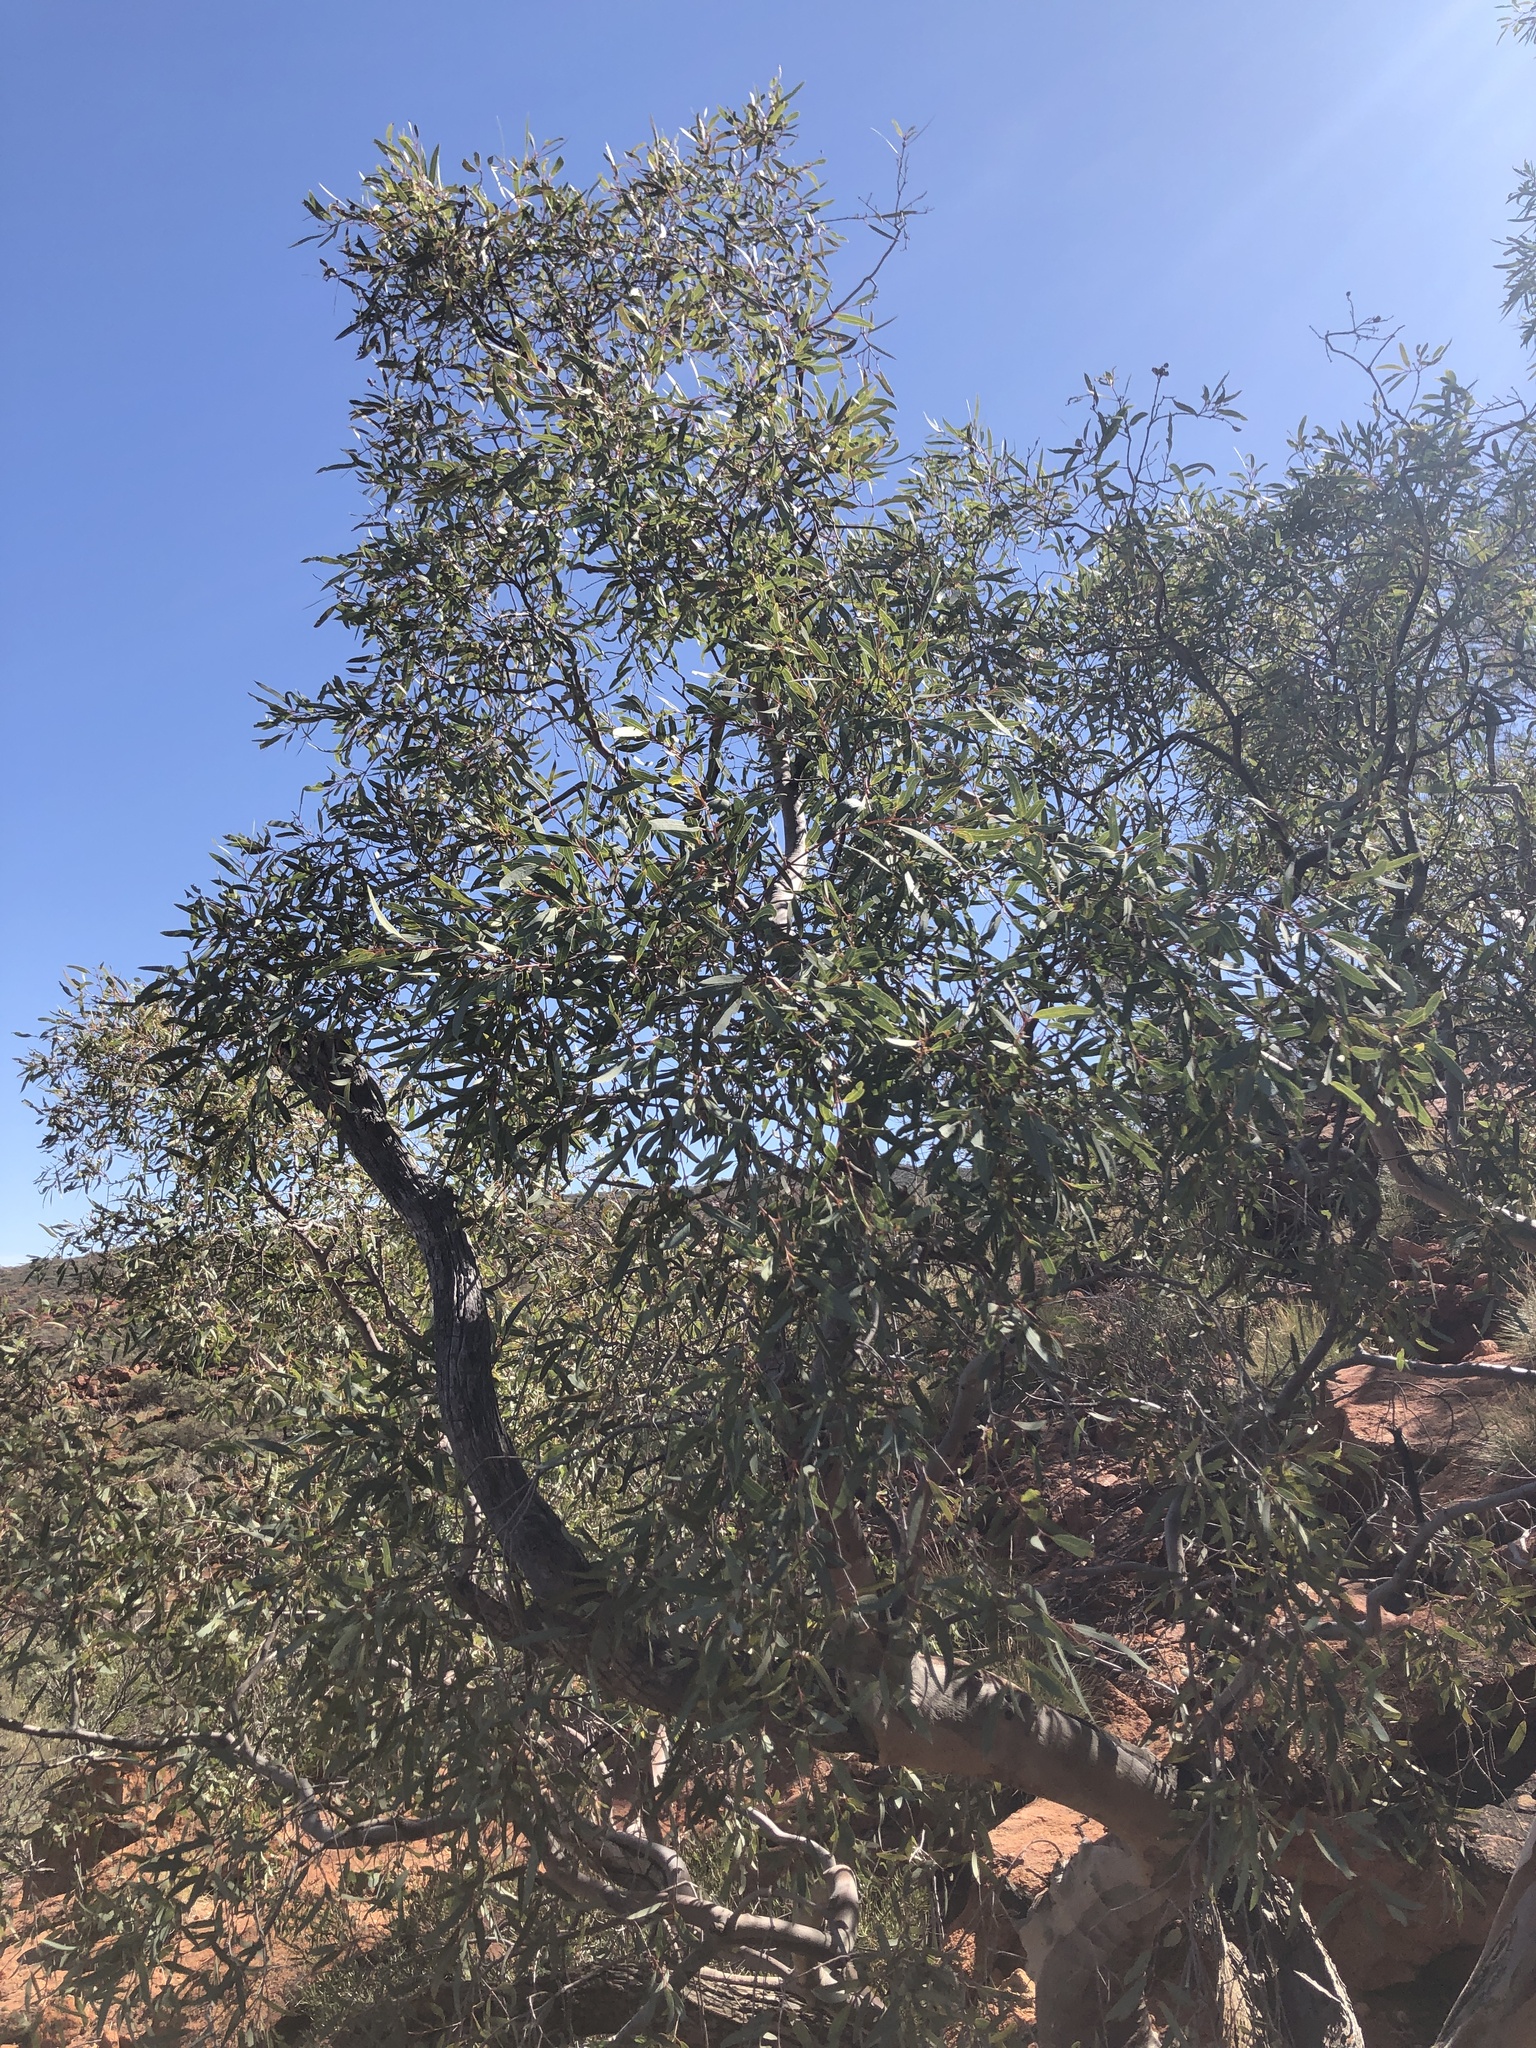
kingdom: Plantae
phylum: Tracheophyta
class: Magnoliopsida
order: Myrtales
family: Myrtaceae
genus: Corymbia
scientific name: Corymbia ferriticola
